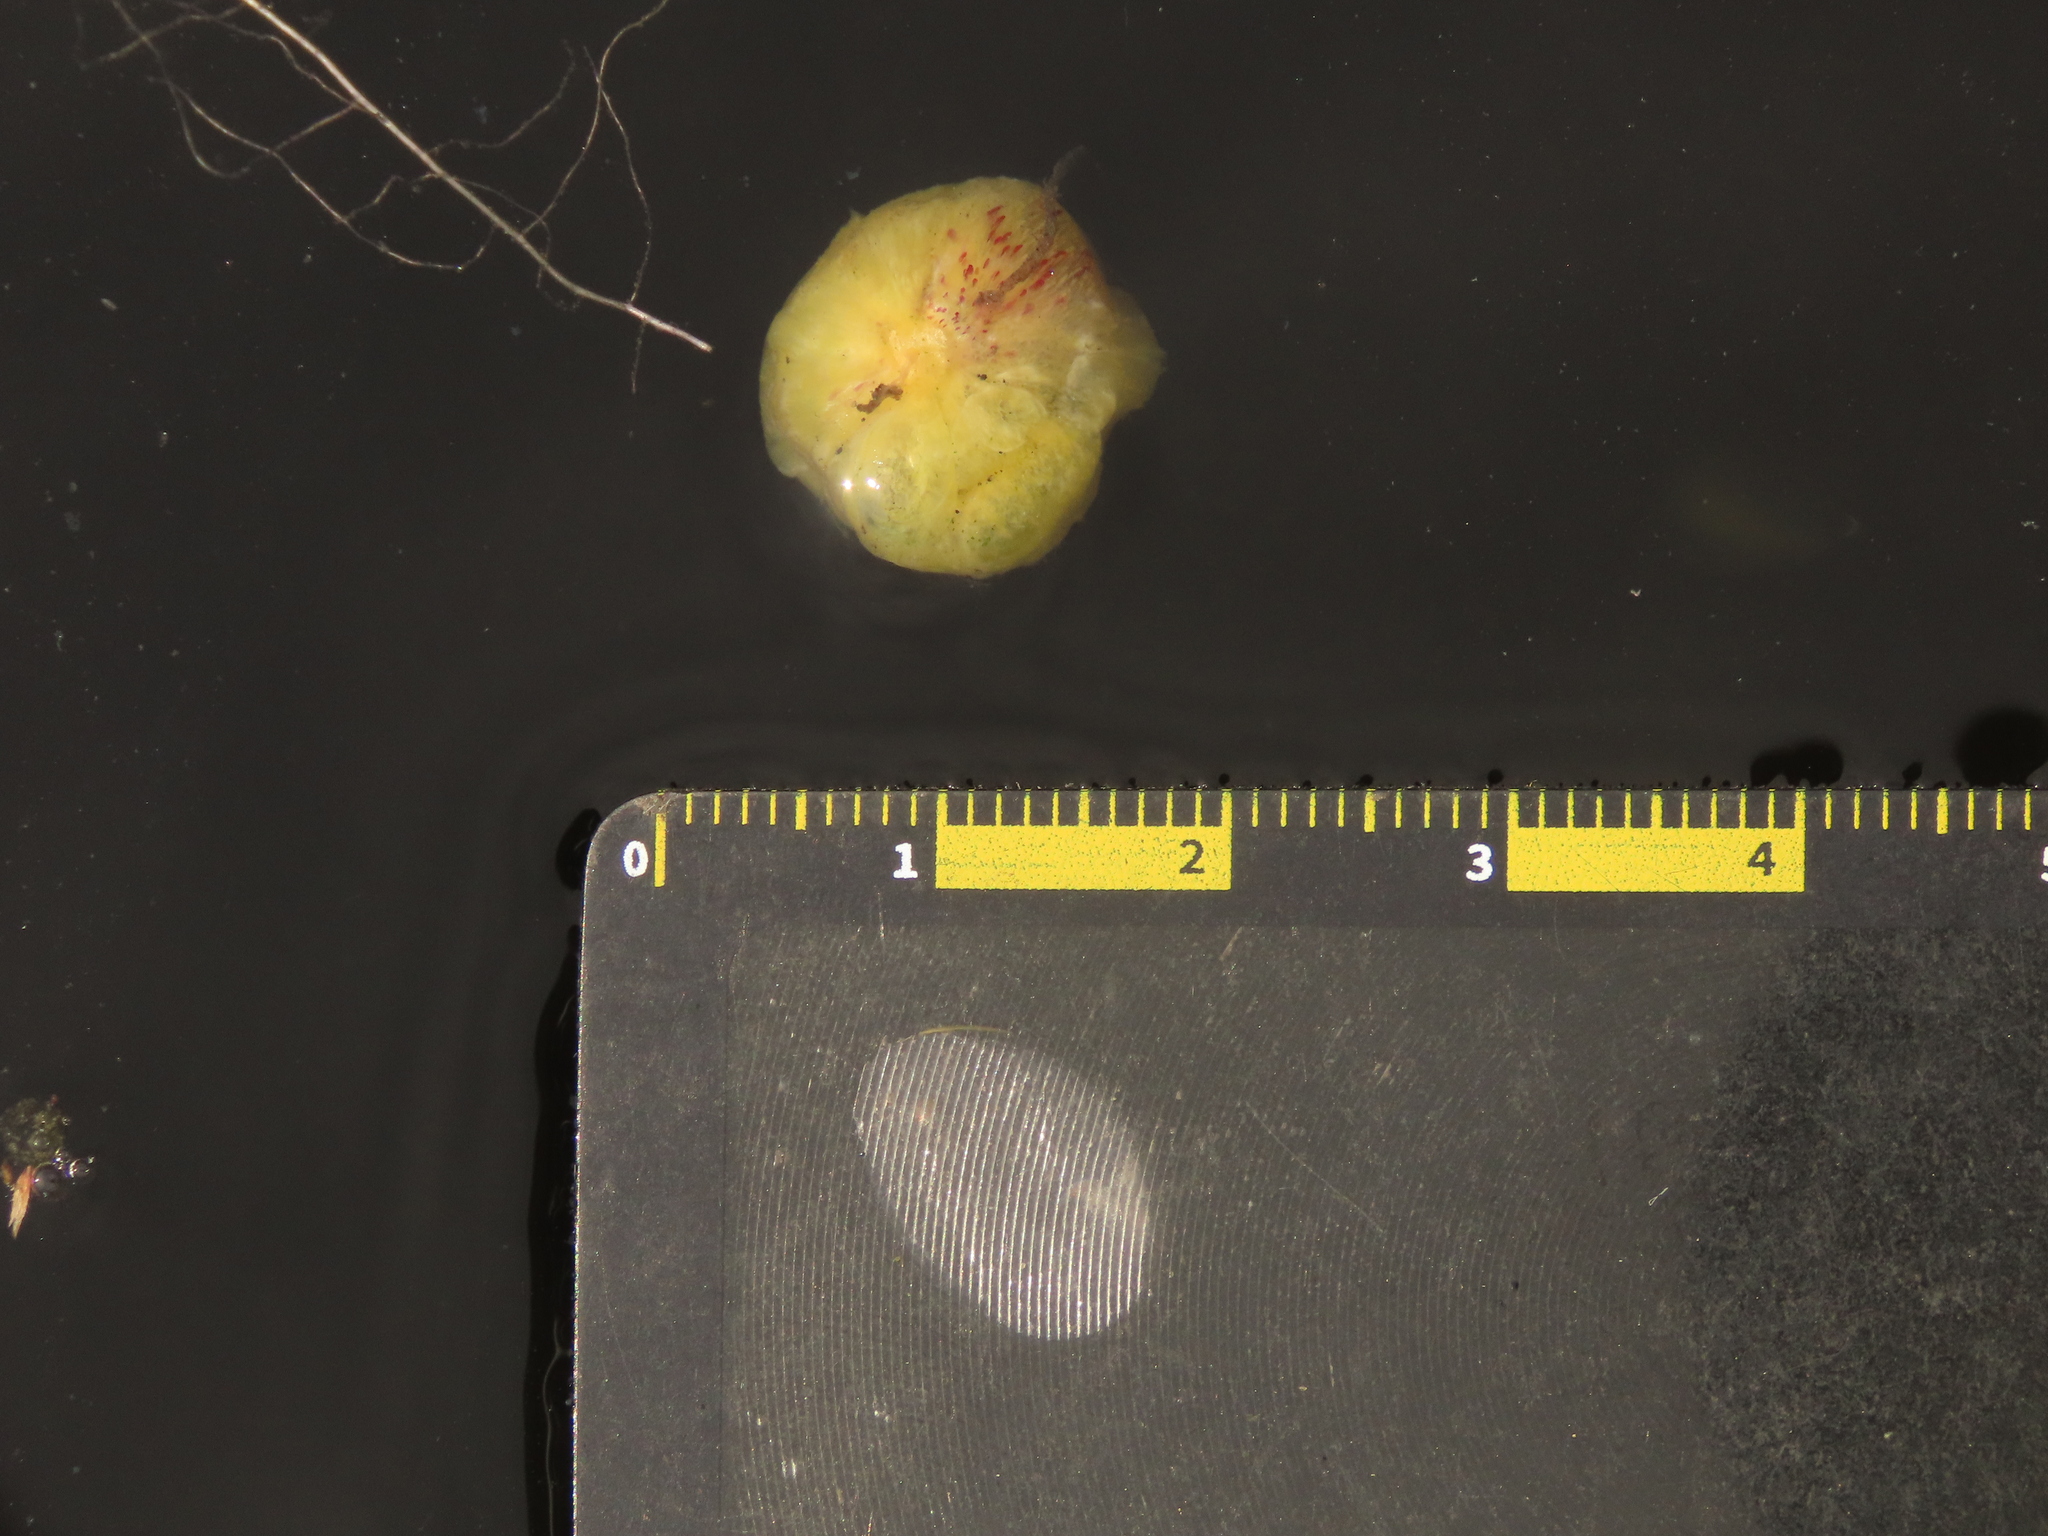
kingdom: Plantae
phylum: Tracheophyta
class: Magnoliopsida
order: Nymphaeales
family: Nymphaeaceae
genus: Euryale
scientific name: Euryale ferox
